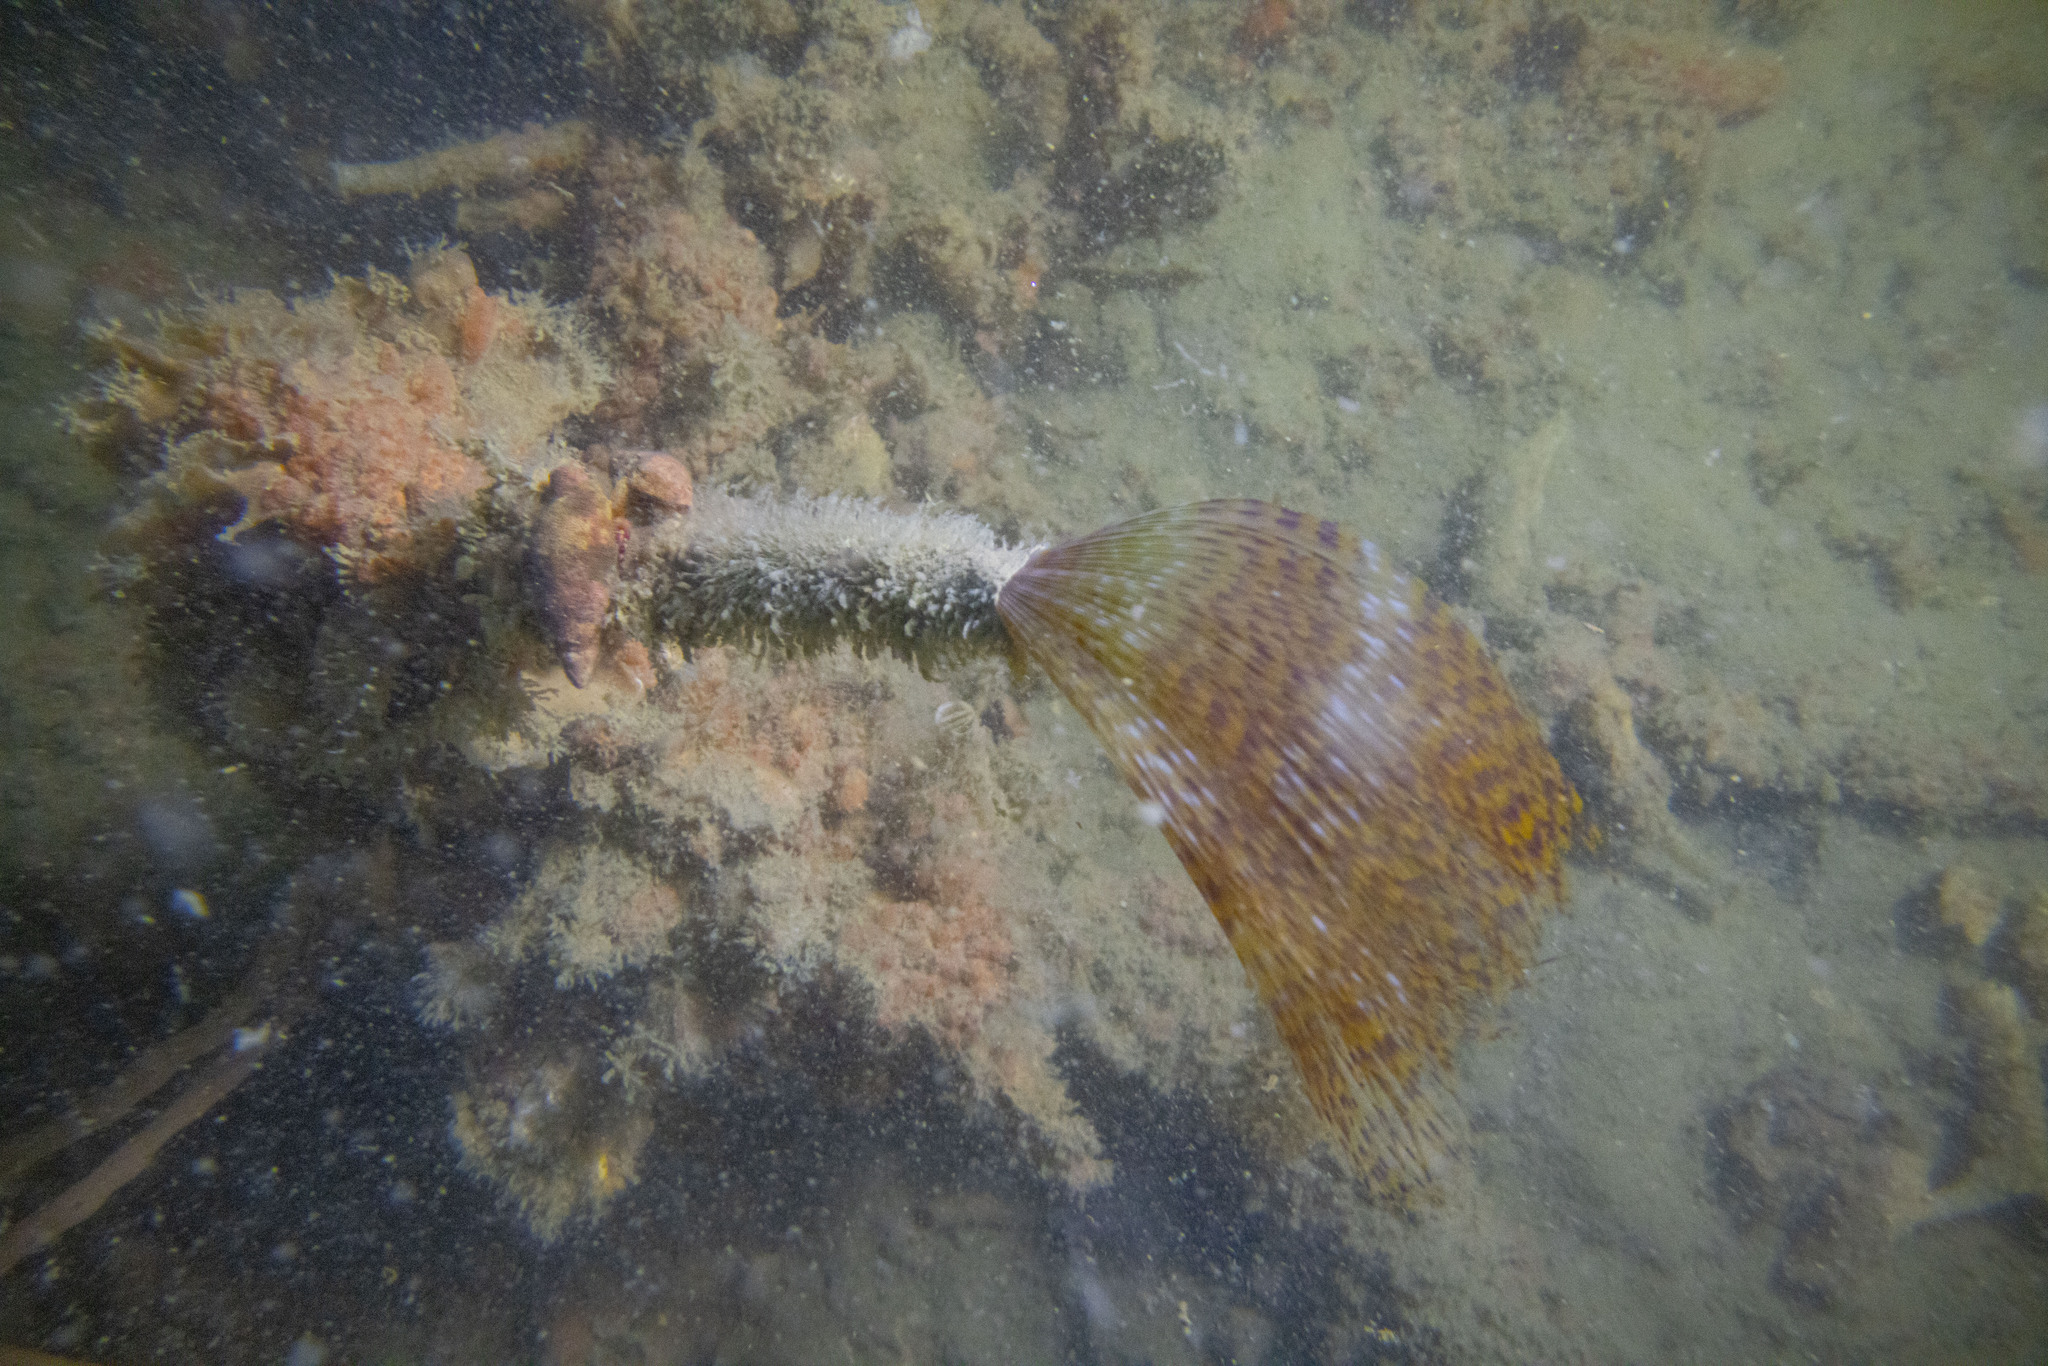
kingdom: Animalia
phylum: Annelida
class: Polychaeta
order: Sabellida
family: Sabellidae
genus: Sabella
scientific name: Sabella spallanzanii
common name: Feather duster worm
